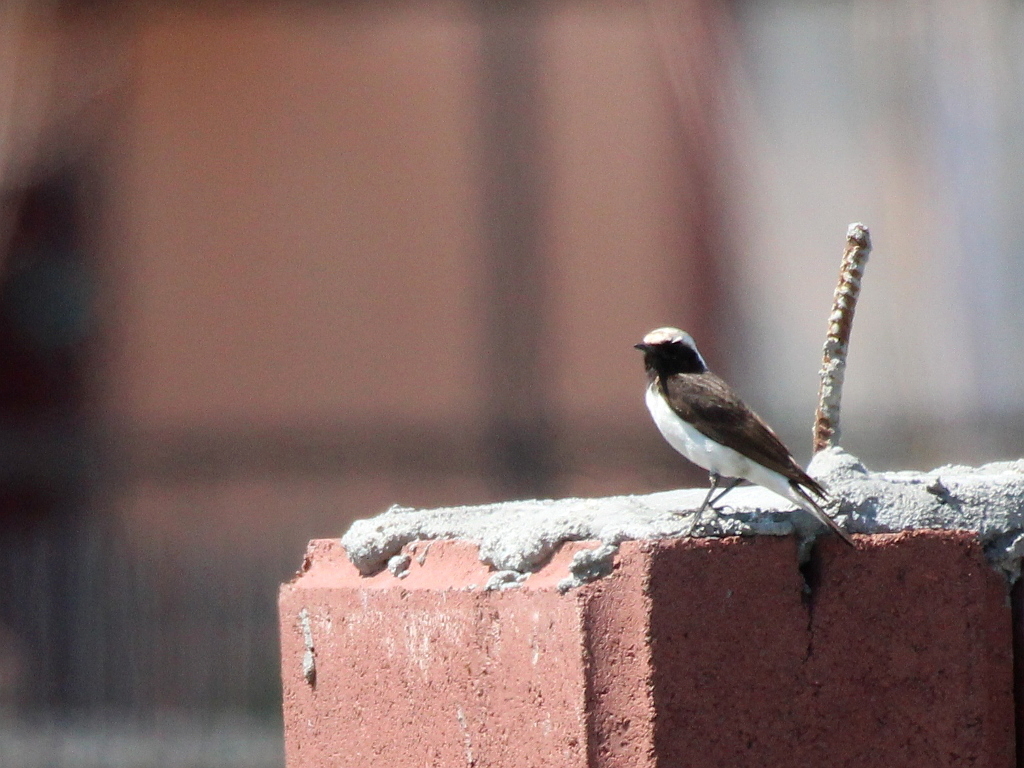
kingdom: Animalia
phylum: Chordata
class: Aves
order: Passeriformes
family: Muscicapidae
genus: Oenanthe
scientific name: Oenanthe pleschanka
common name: Pied wheatear
